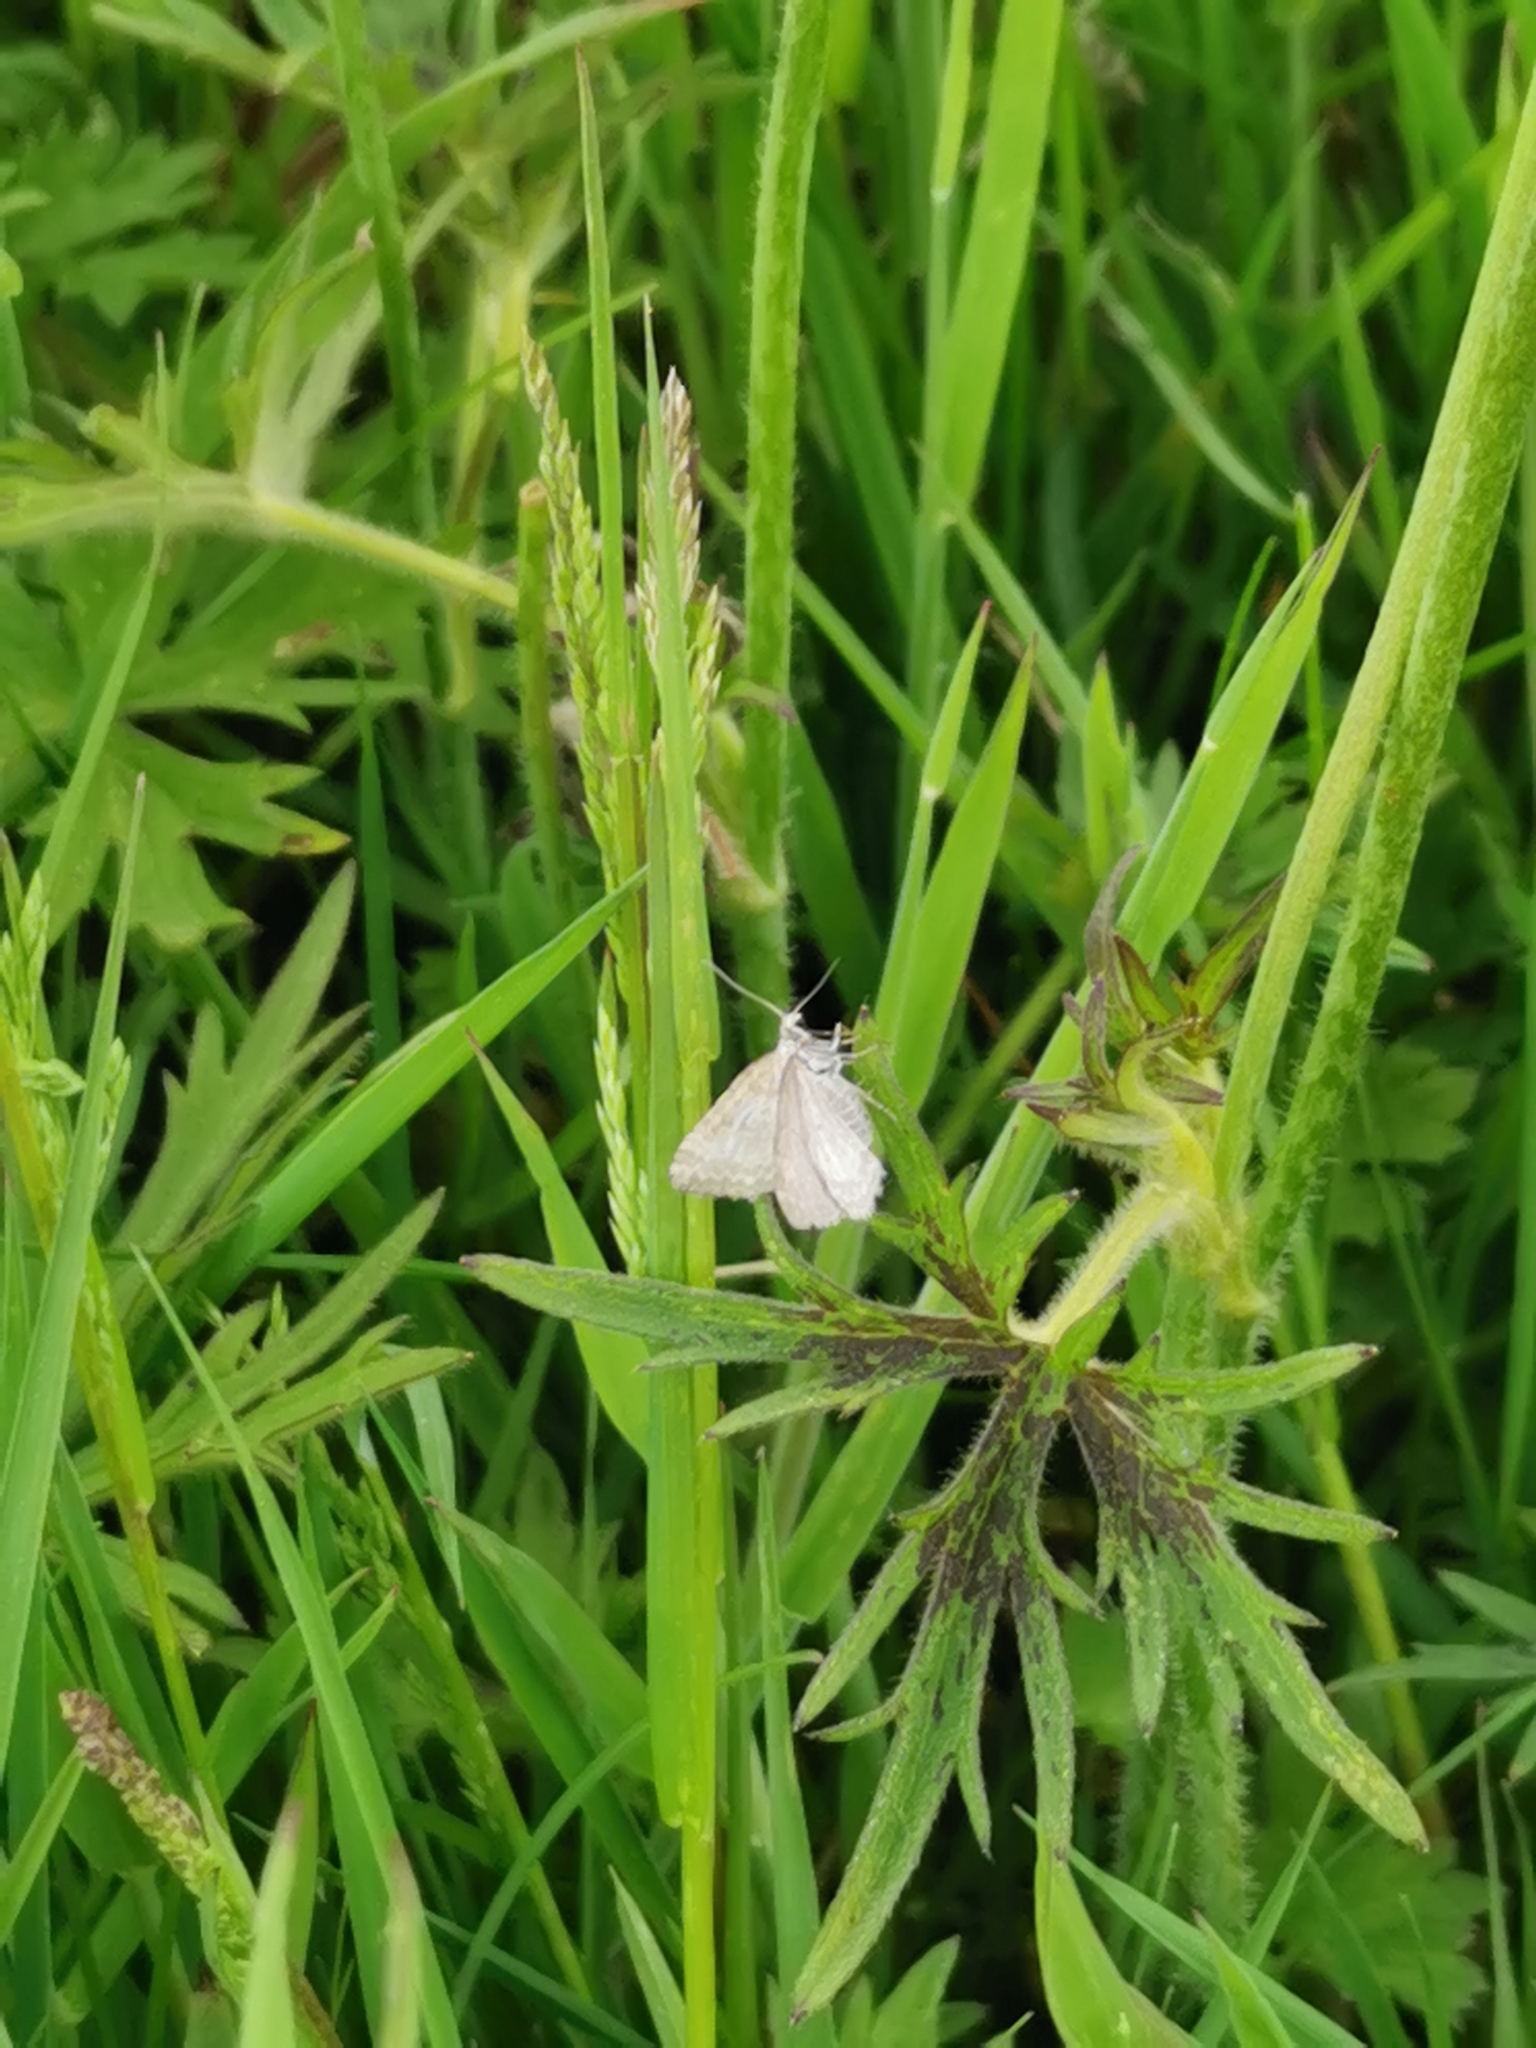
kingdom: Animalia
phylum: Arthropoda
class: Insecta
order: Lepidoptera
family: Geometridae
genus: Perizoma
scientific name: Perizoma albulata
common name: Grass rivulet
